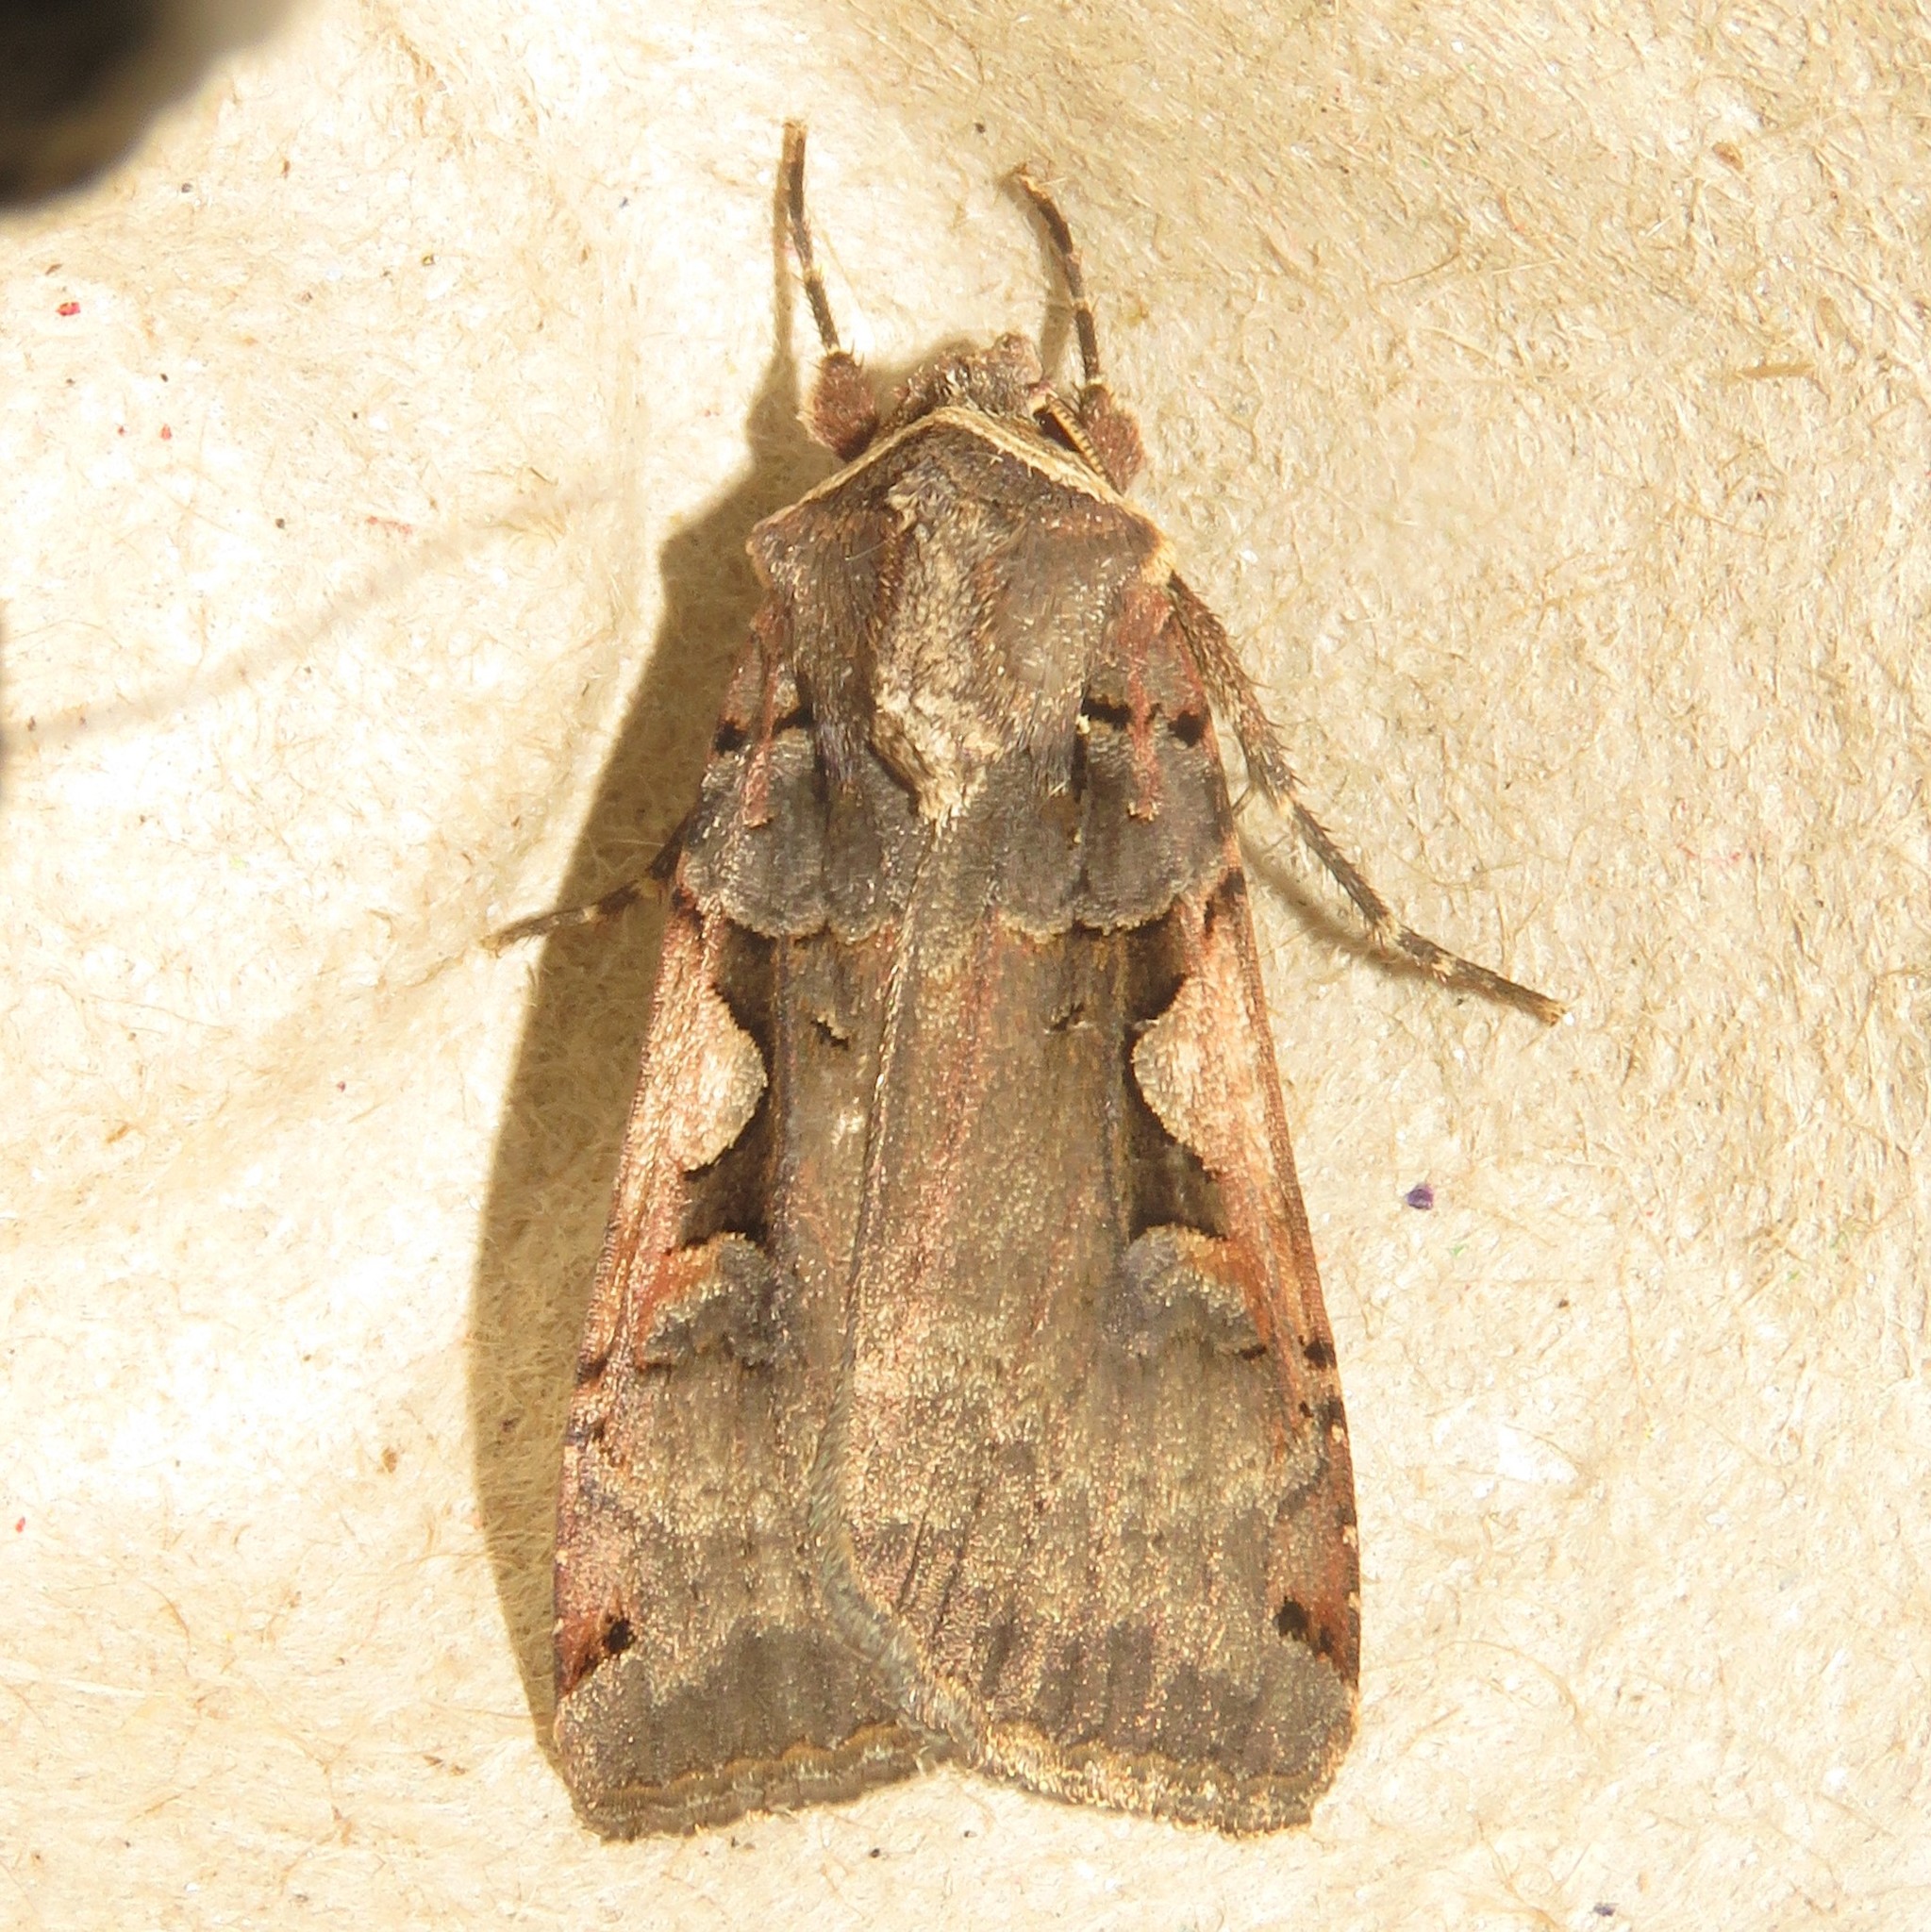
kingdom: Animalia
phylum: Arthropoda
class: Insecta
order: Lepidoptera
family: Noctuidae
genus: Xestia
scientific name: Xestia
